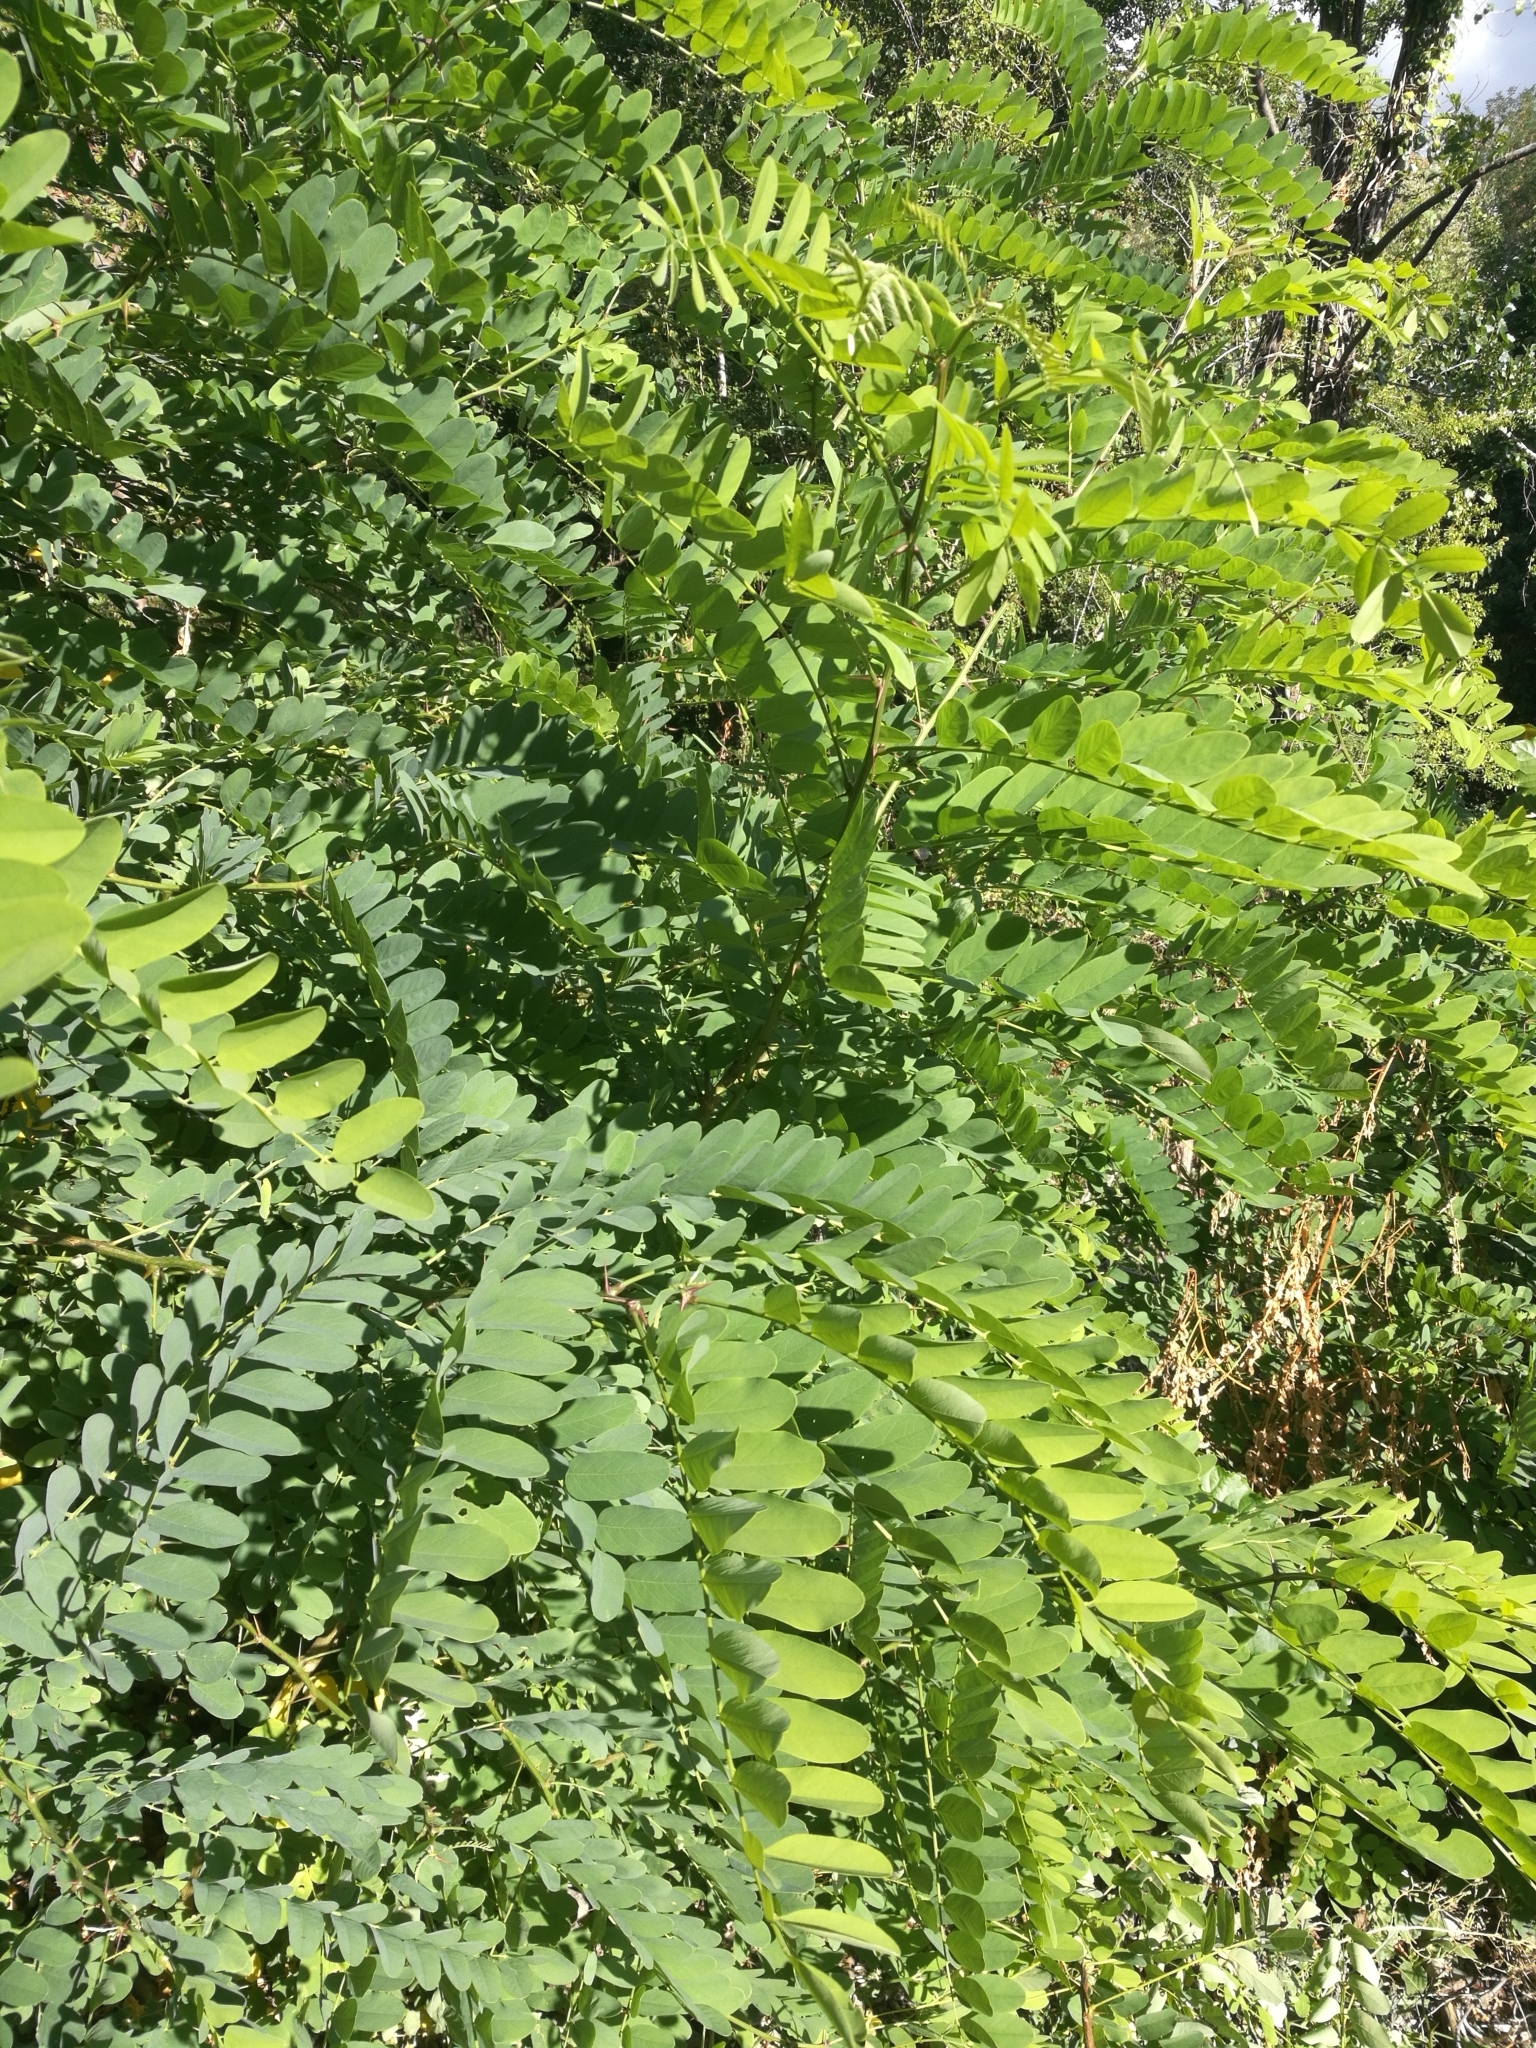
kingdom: Plantae
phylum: Tracheophyta
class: Magnoliopsida
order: Fabales
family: Fabaceae
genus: Robinia
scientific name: Robinia pseudoacacia
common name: Black locust
